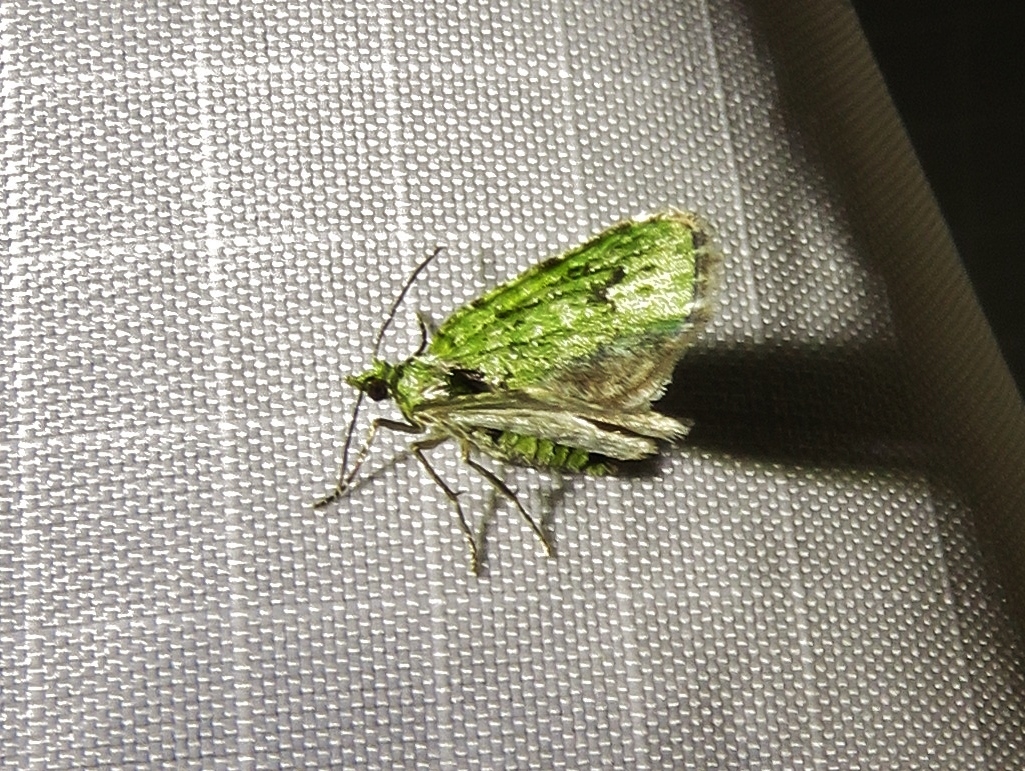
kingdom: Animalia
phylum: Arthropoda
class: Insecta
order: Lepidoptera
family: Geometridae
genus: Chloroclystis
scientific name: Chloroclystis v-ata
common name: V-pug
